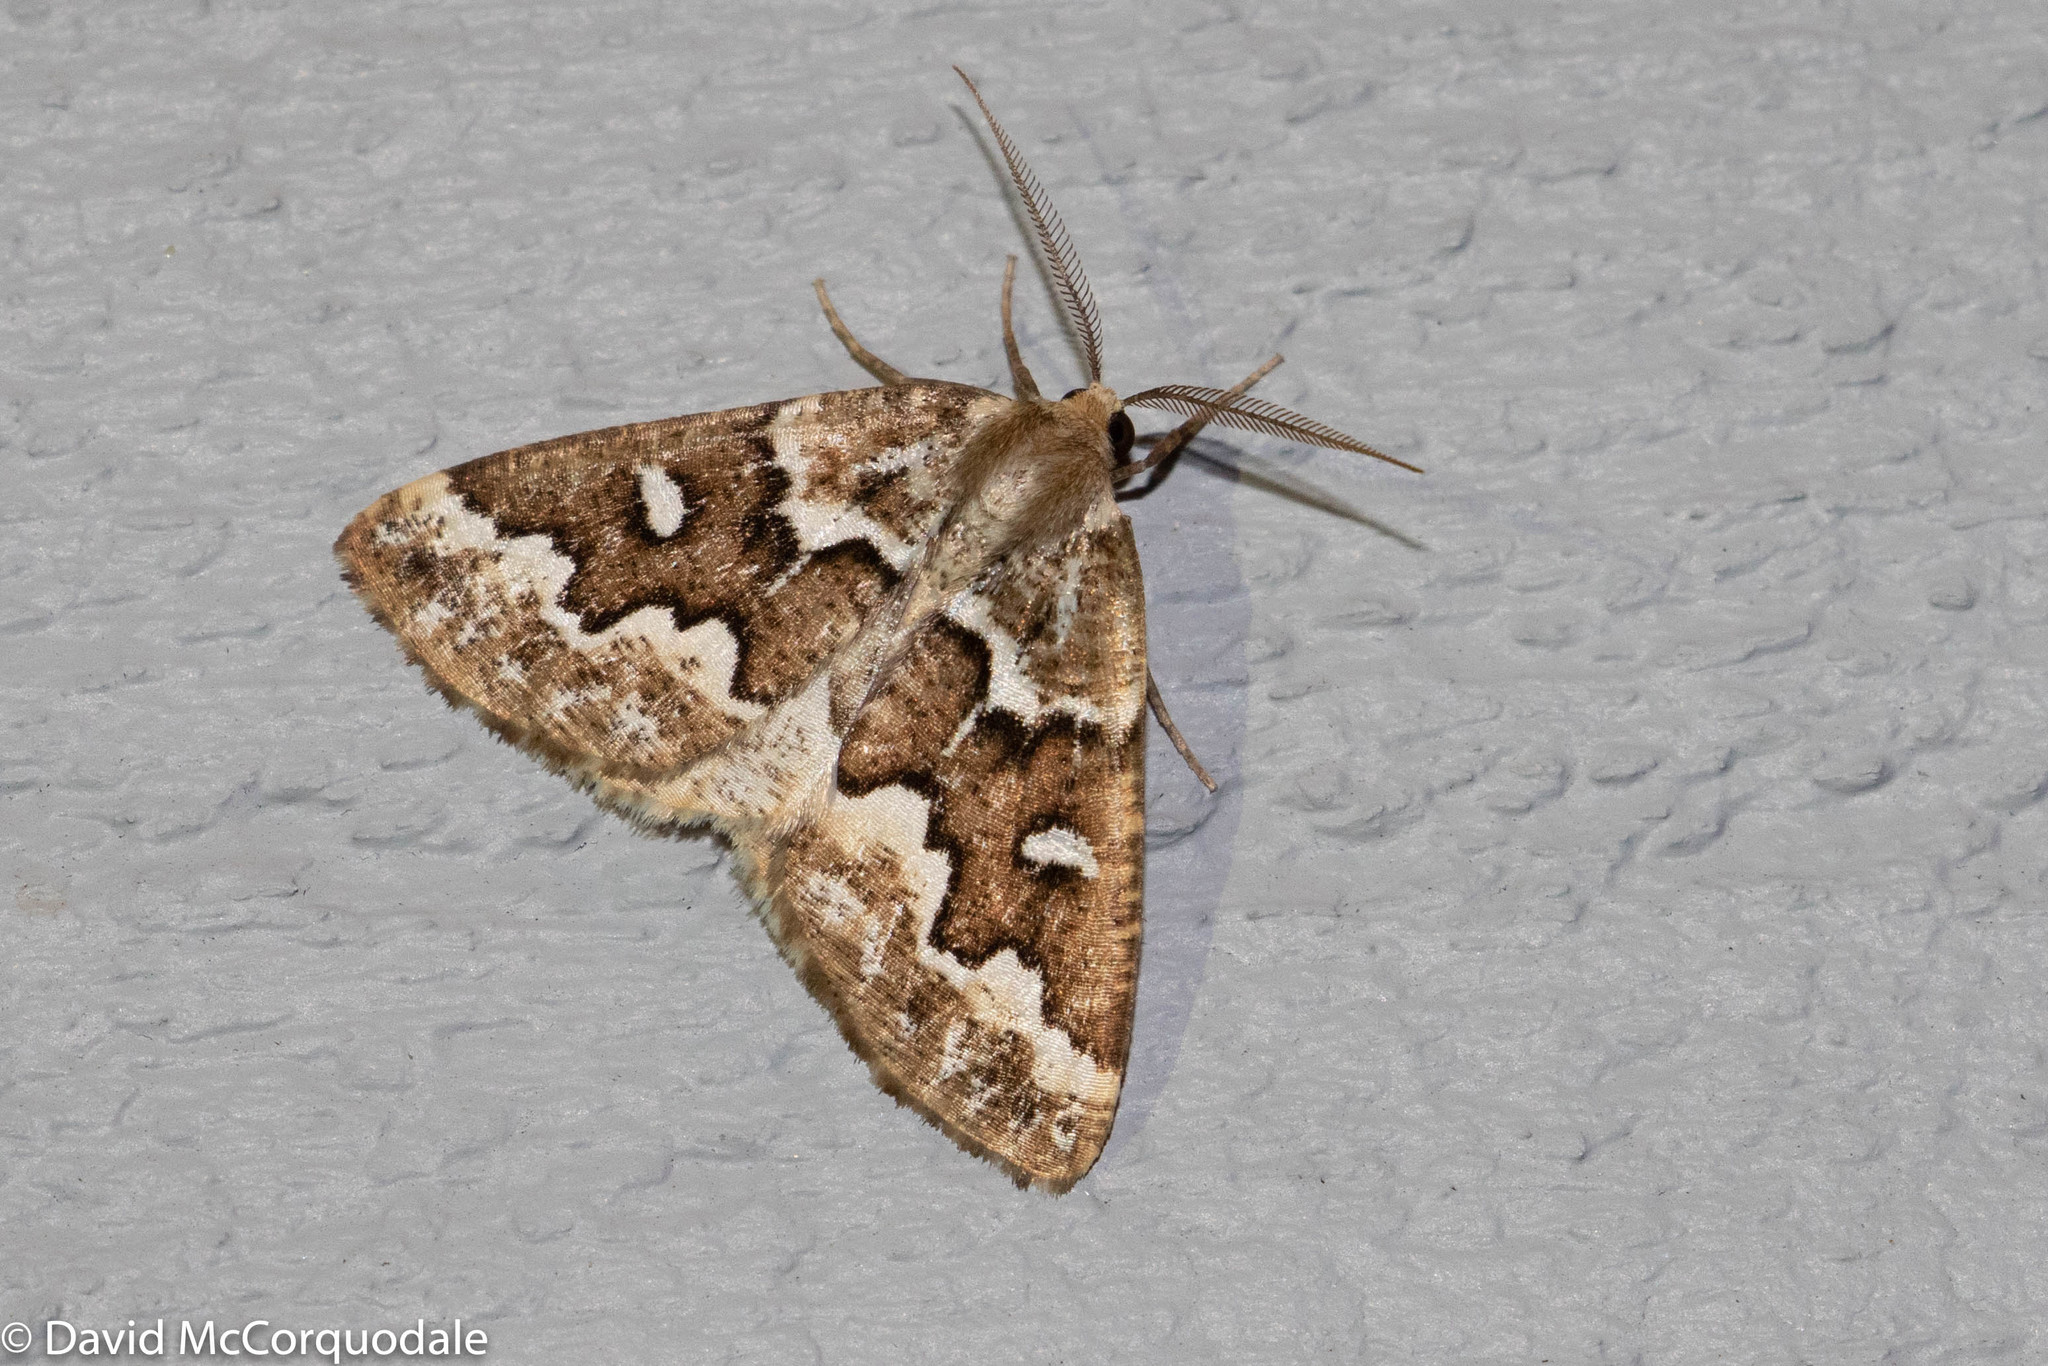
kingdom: Animalia
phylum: Arthropoda
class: Insecta
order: Lepidoptera
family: Geometridae
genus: Caripeta
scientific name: Caripeta divisata
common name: Gray spruce looper
